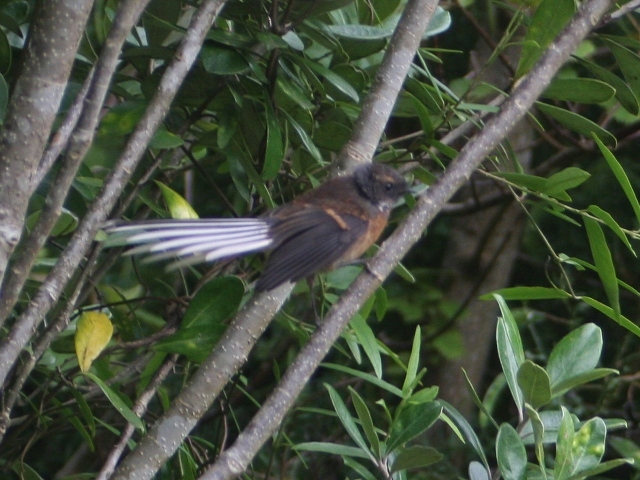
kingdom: Animalia
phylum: Chordata
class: Aves
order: Passeriformes
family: Rhipiduridae
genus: Rhipidura
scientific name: Rhipidura fuliginosa
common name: New zealand fantail
